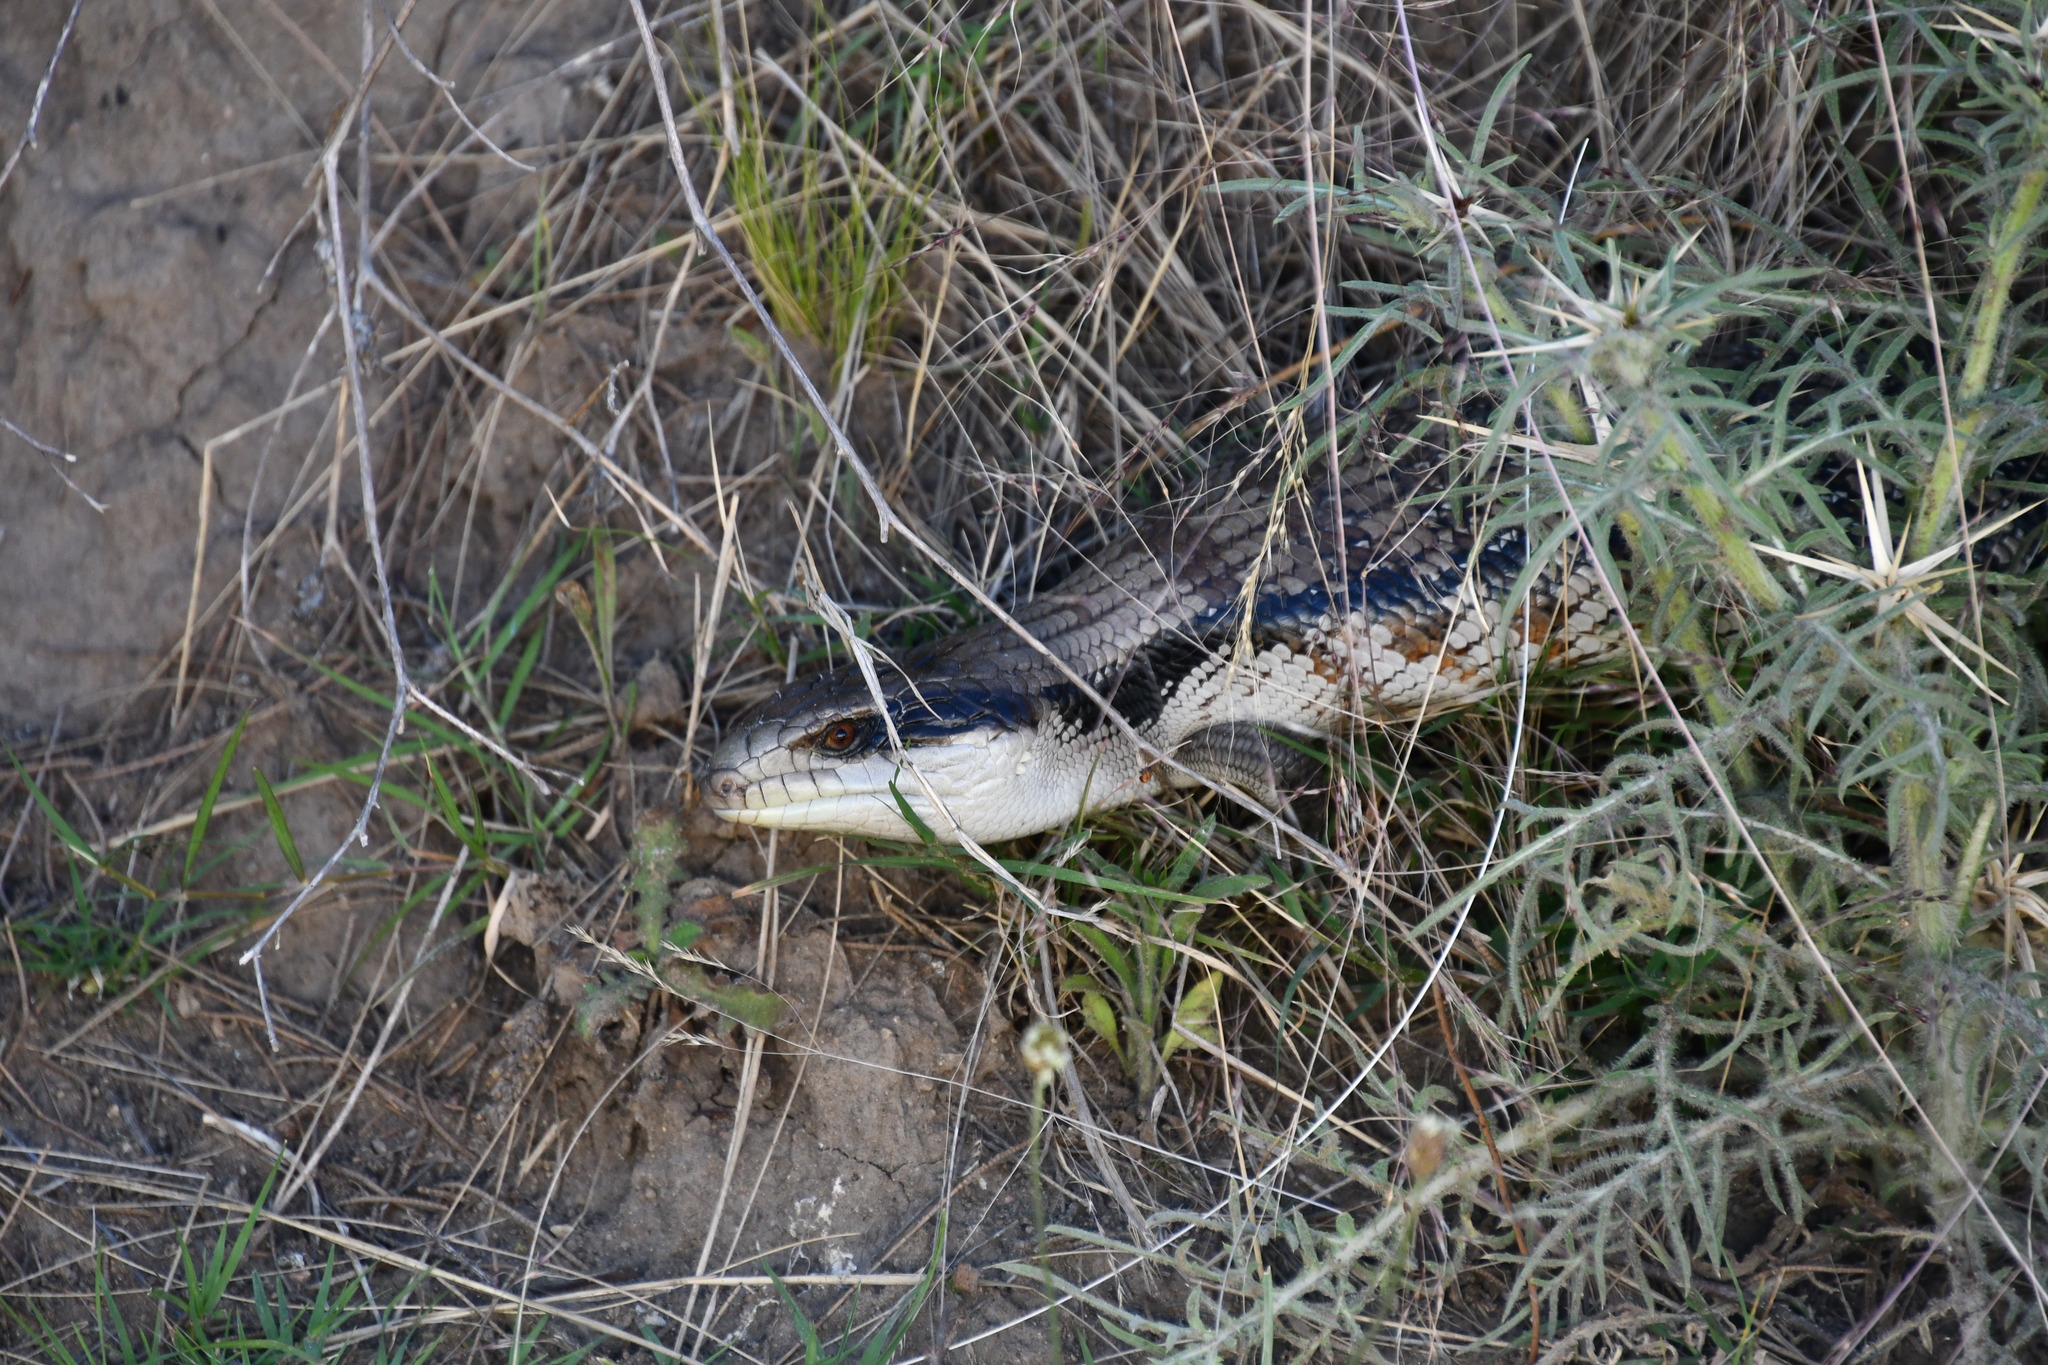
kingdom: Animalia
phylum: Chordata
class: Squamata
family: Scincidae
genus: Tiliqua
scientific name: Tiliqua scincoides
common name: Common bluetongue
